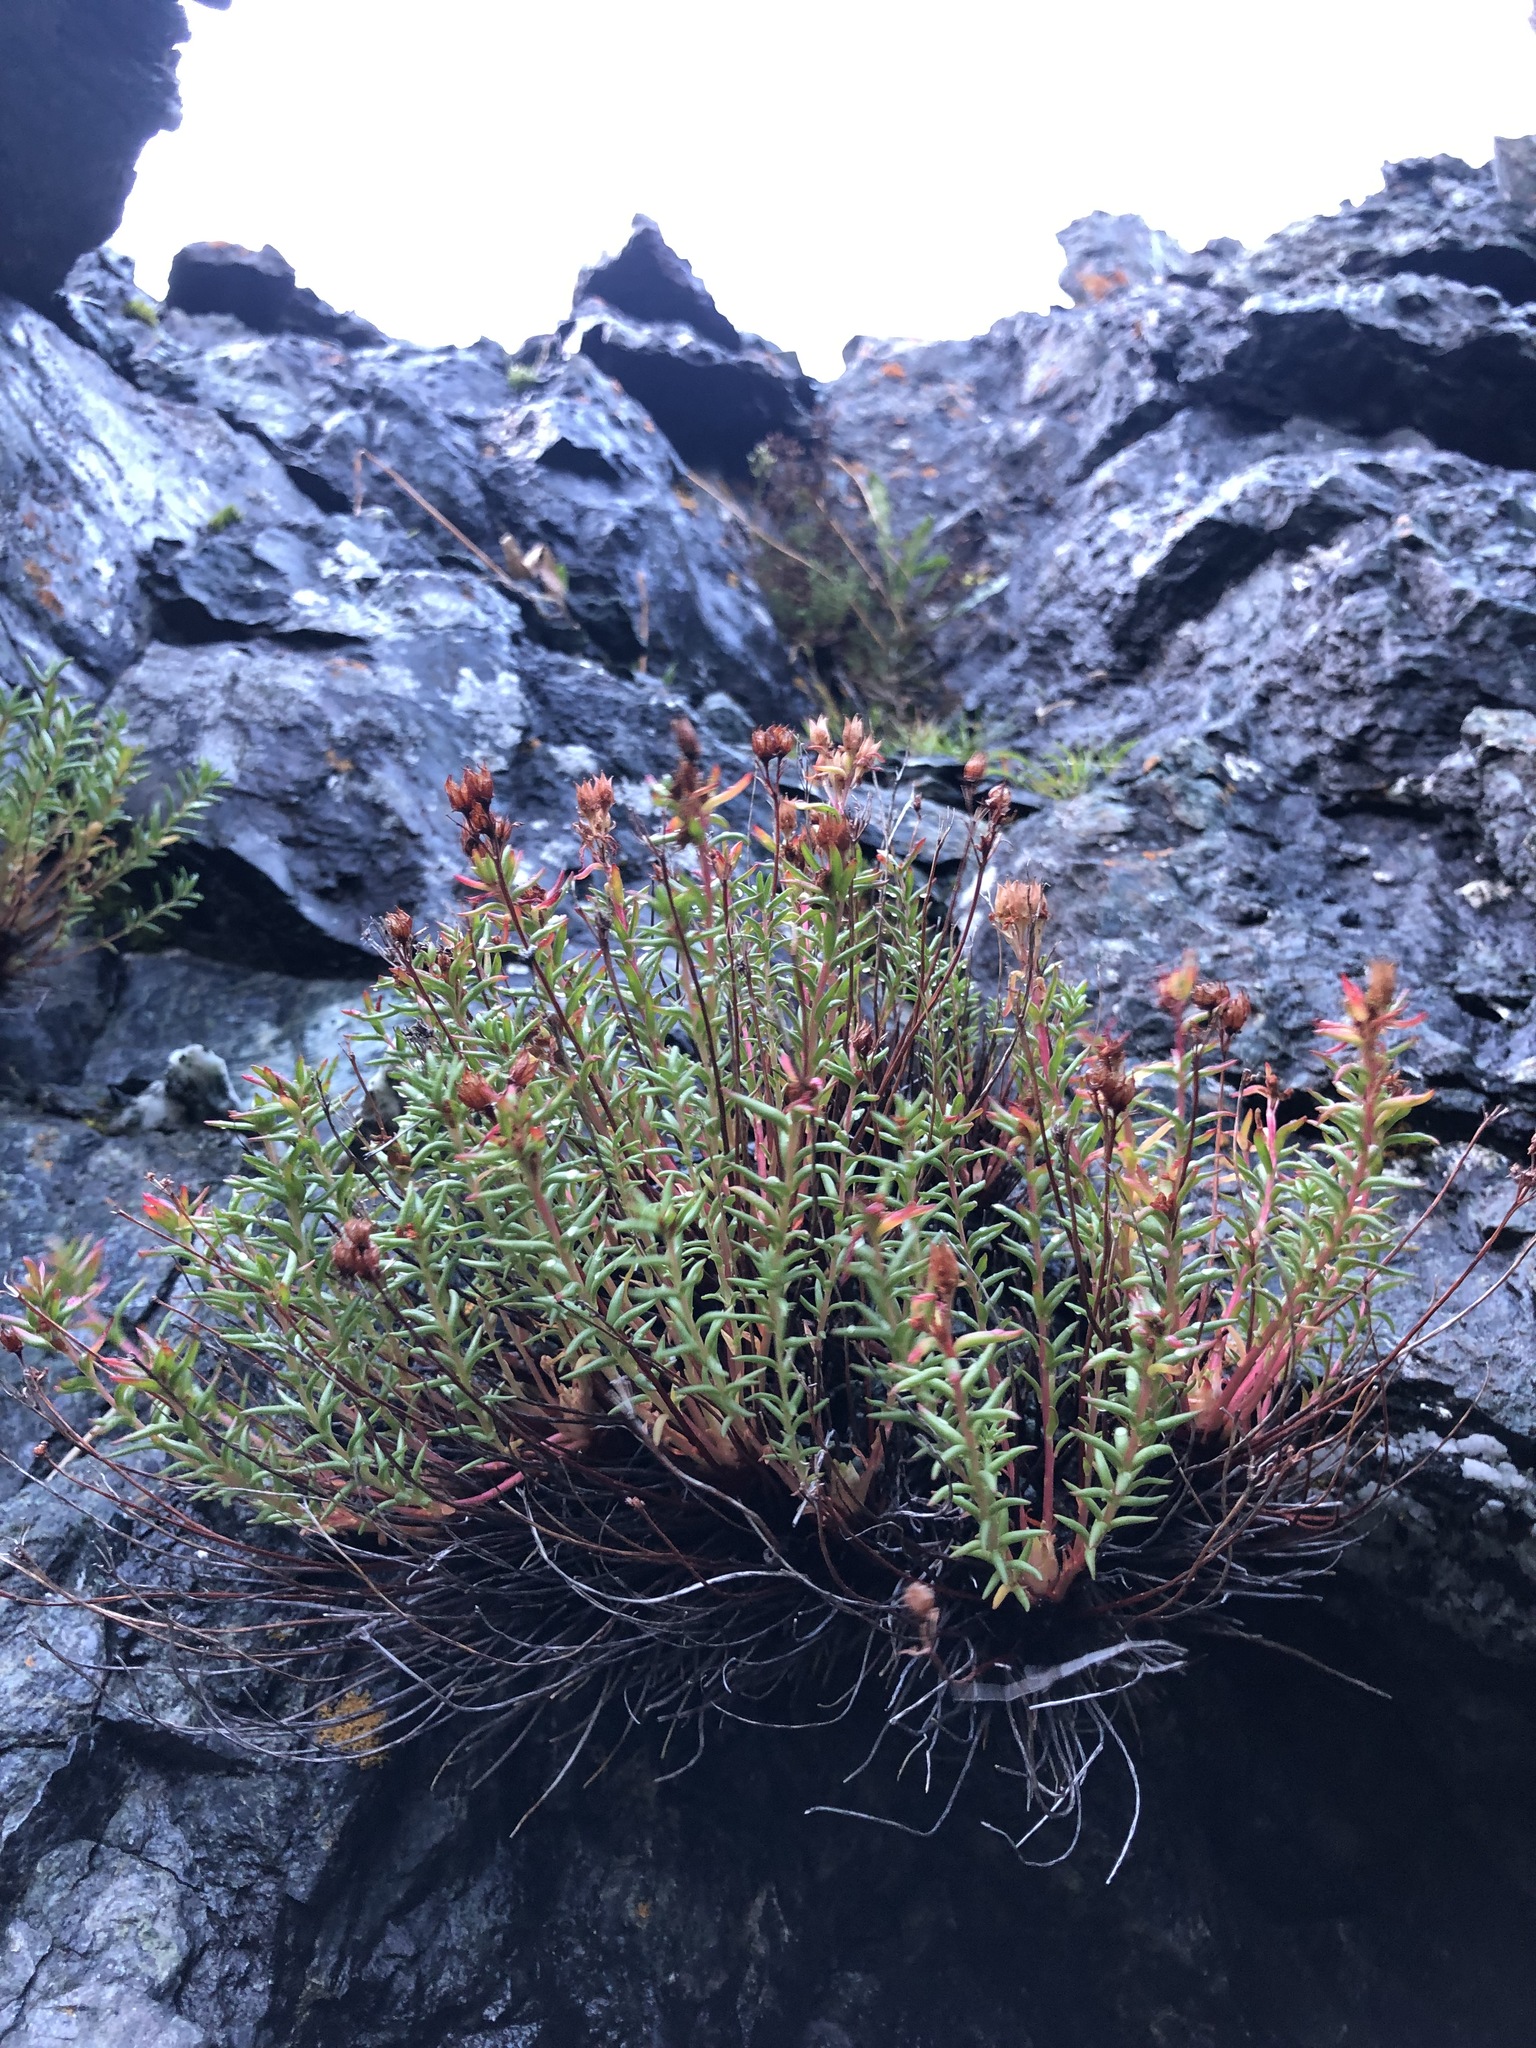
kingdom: Plantae
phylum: Tracheophyta
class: Magnoliopsida
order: Saxifragales
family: Crassulaceae
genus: Rhodiola
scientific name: Rhodiola quadrifida
